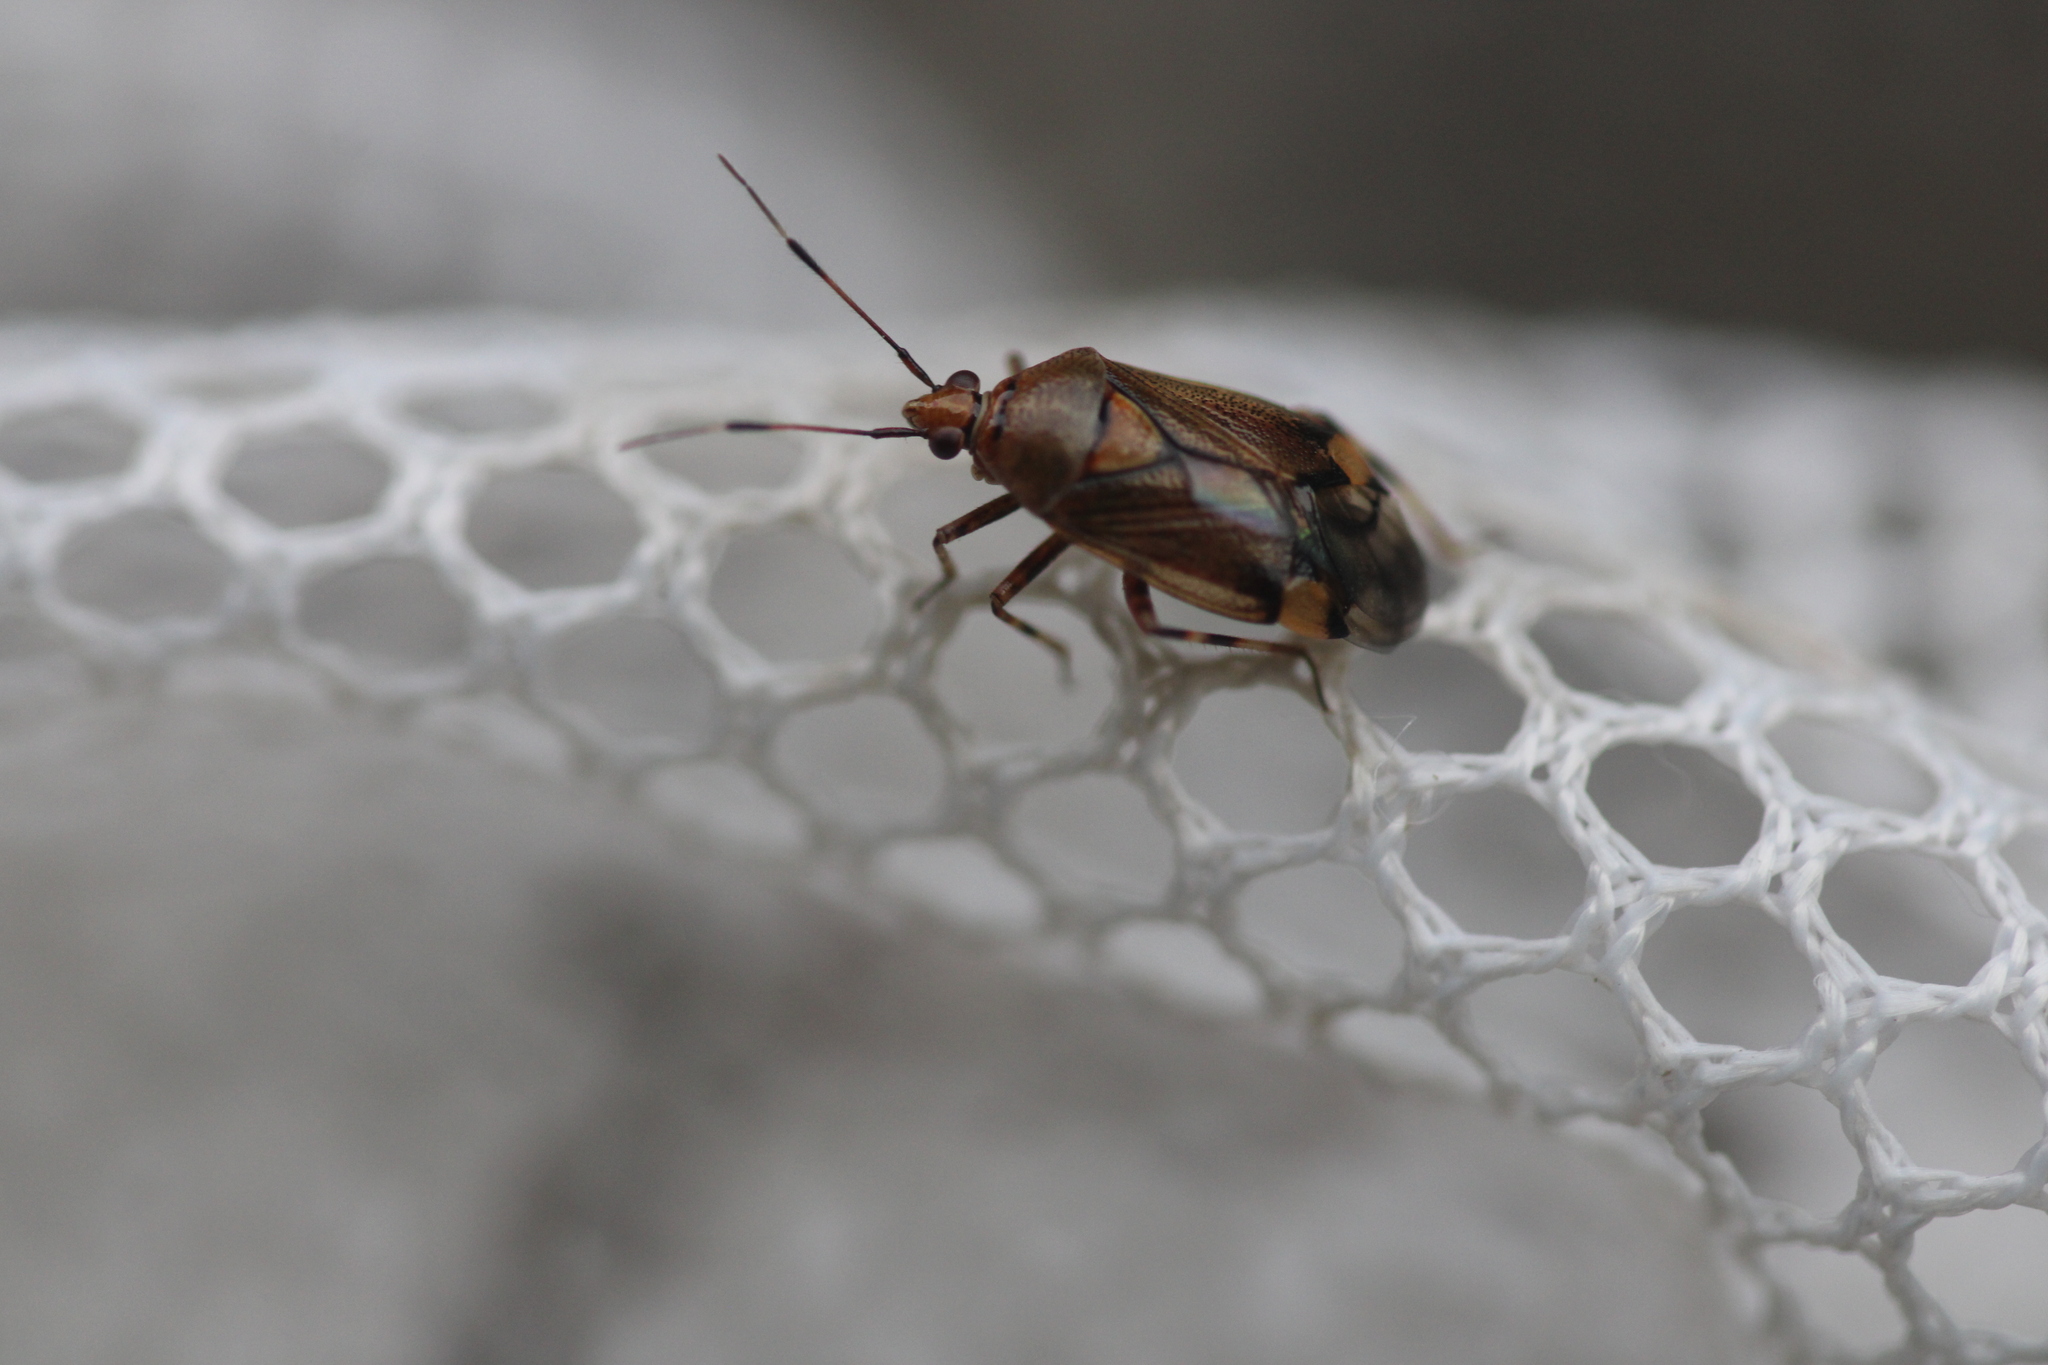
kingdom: Animalia
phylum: Arthropoda
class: Insecta
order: Hemiptera
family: Miridae
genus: Deraeocoris
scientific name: Deraeocoris flavilinea
